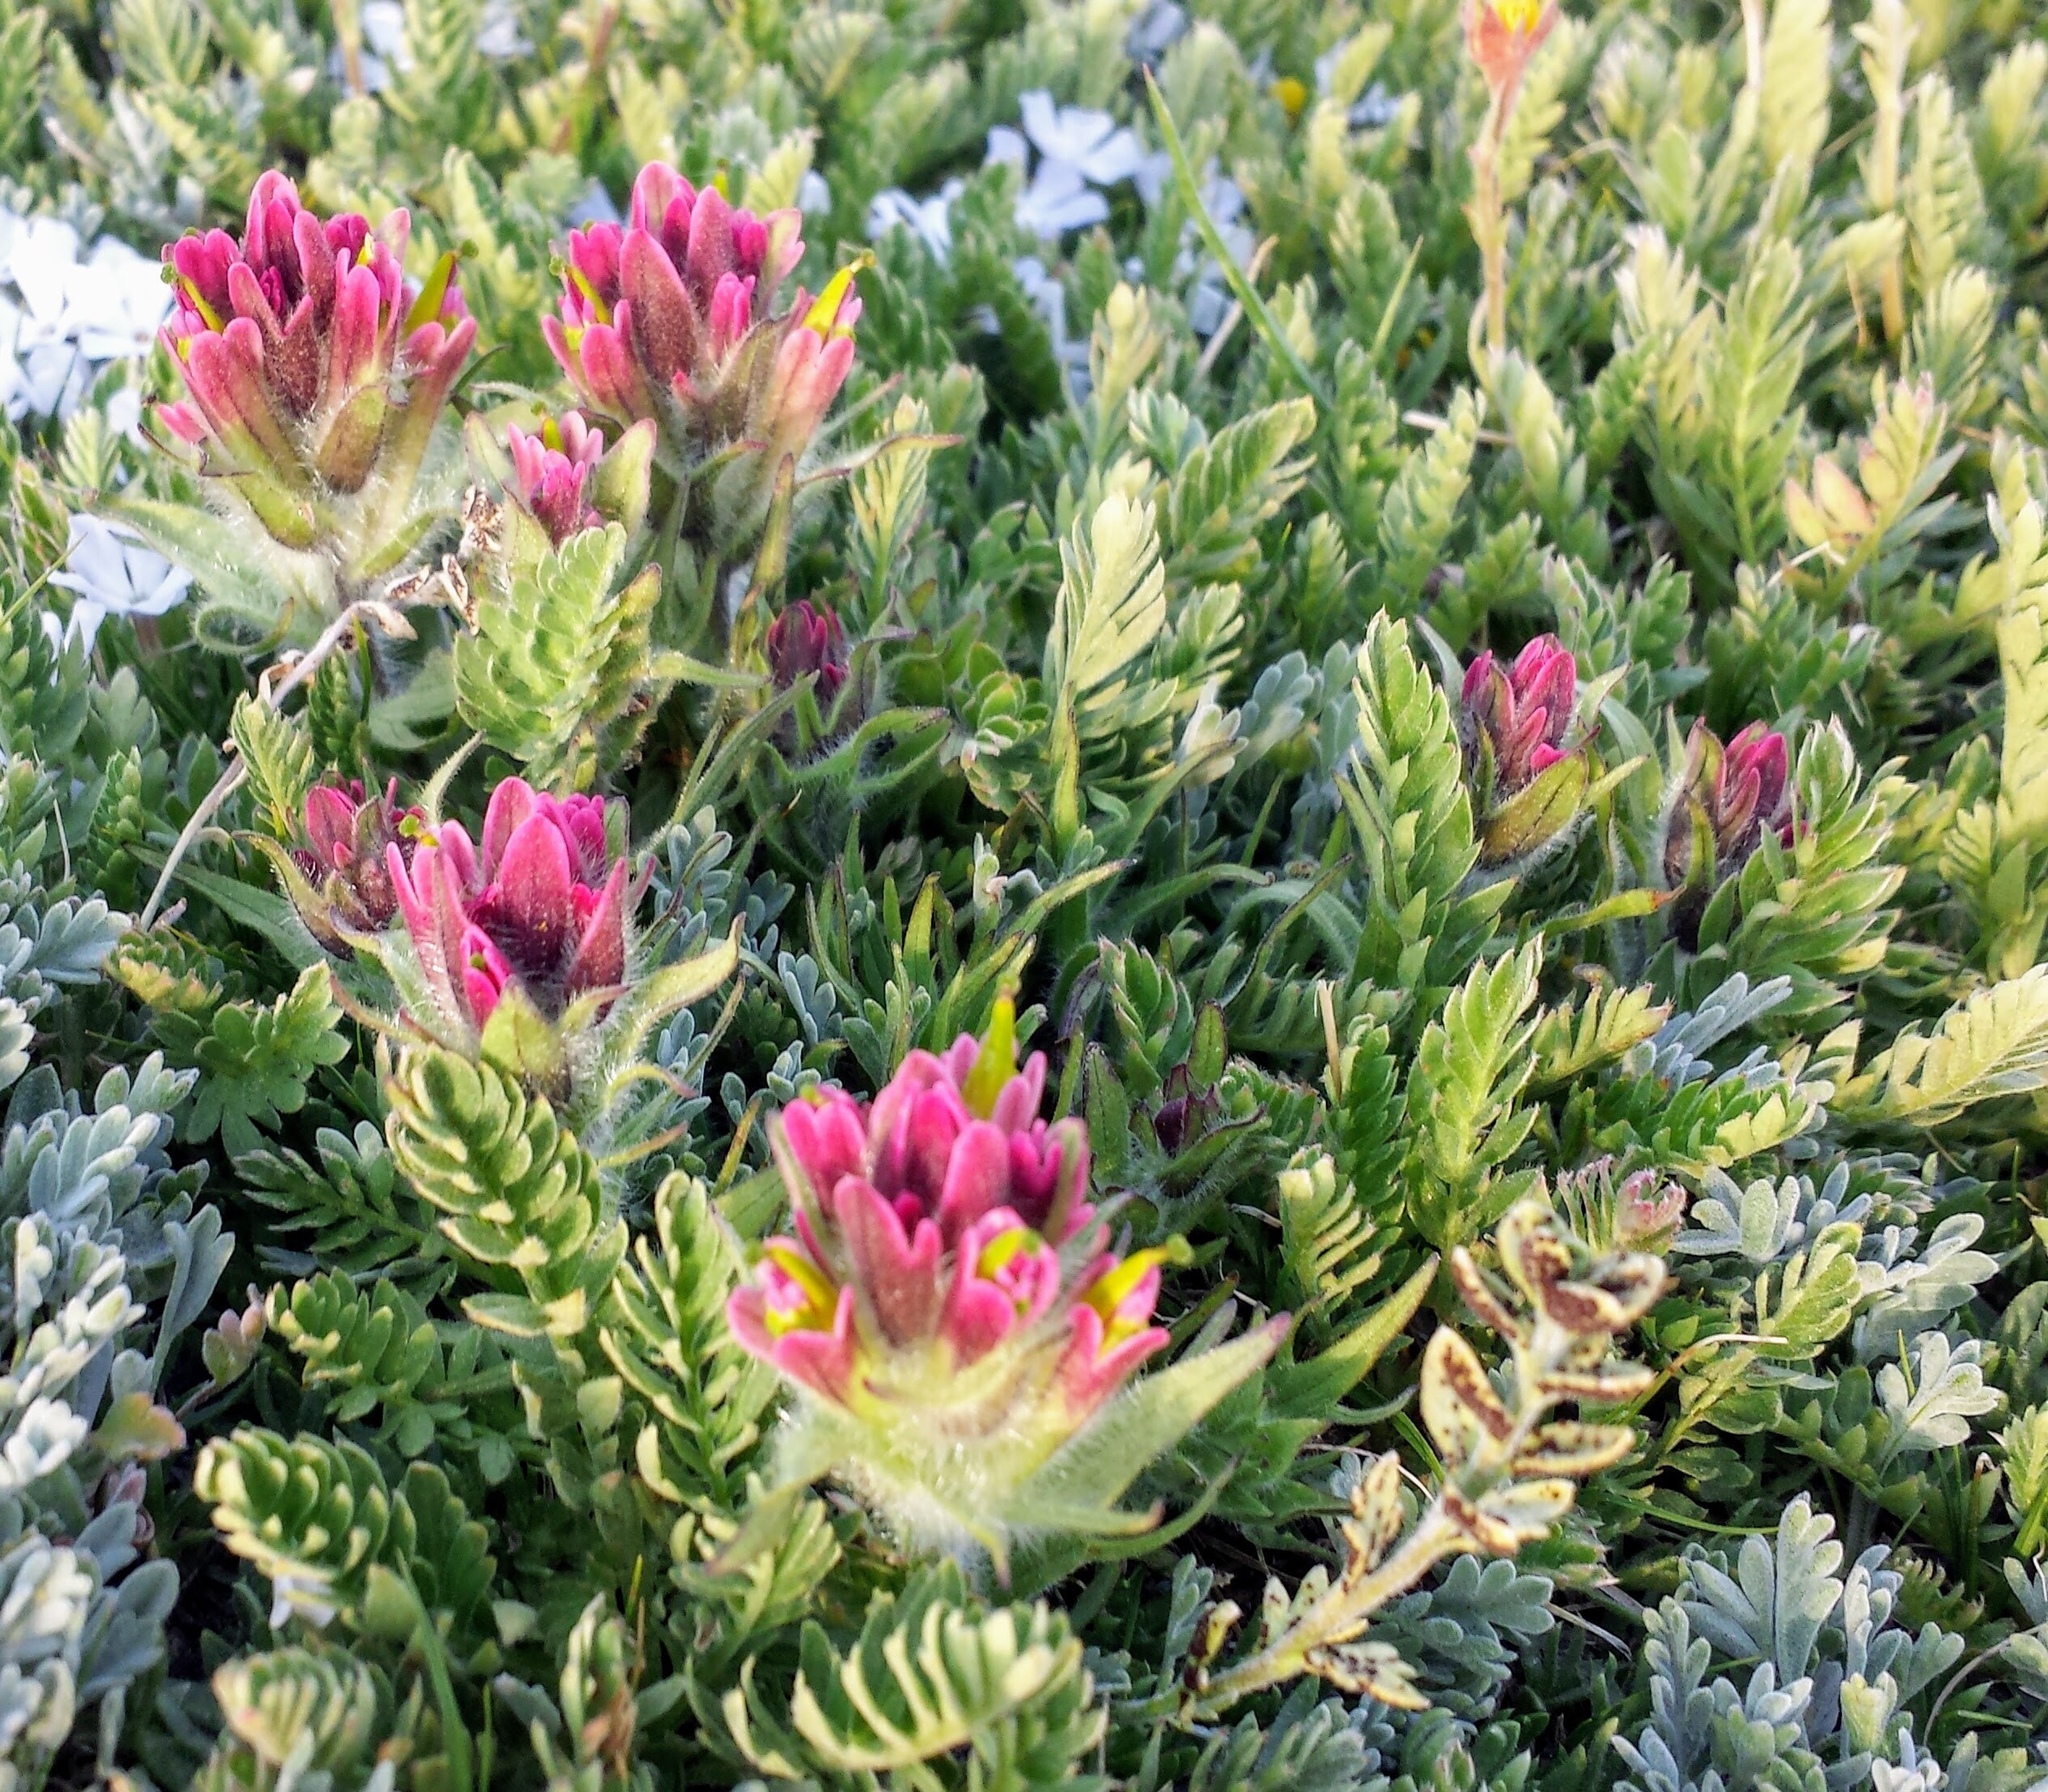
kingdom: Plantae
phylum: Tracheophyta
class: Magnoliopsida
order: Lamiales
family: Orobanchaceae
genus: Castilleja
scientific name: Castilleja pulchella
